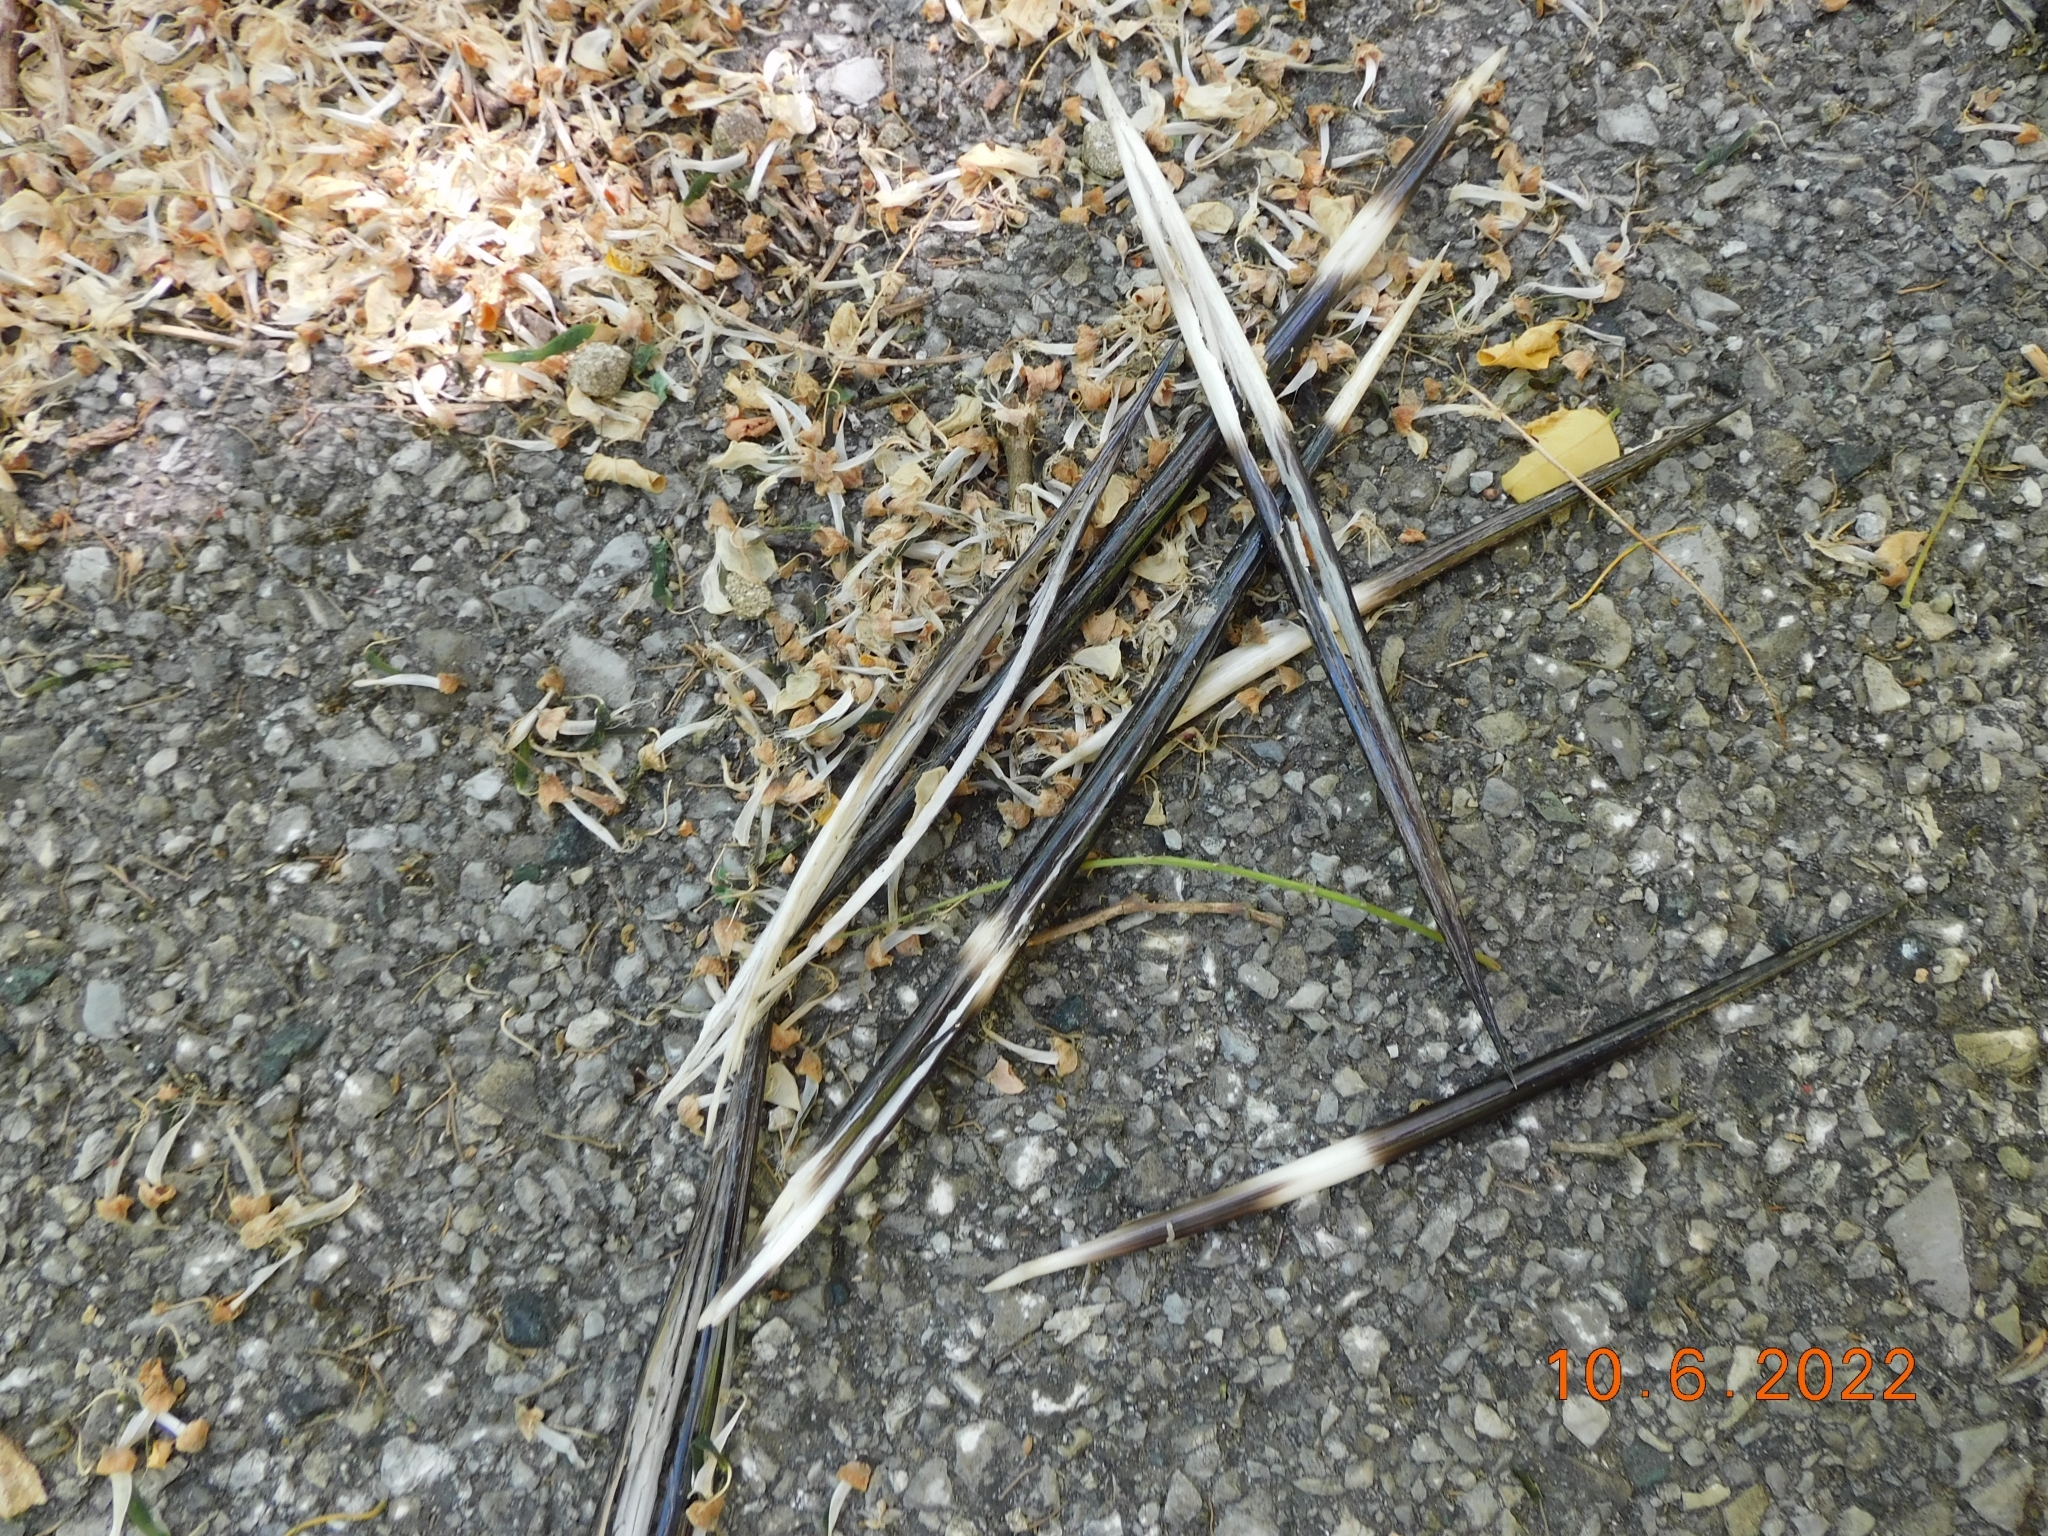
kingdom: Animalia
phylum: Chordata
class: Mammalia
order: Rodentia
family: Hystricidae
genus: Hystrix
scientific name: Hystrix cristata
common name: Crested porcupine
